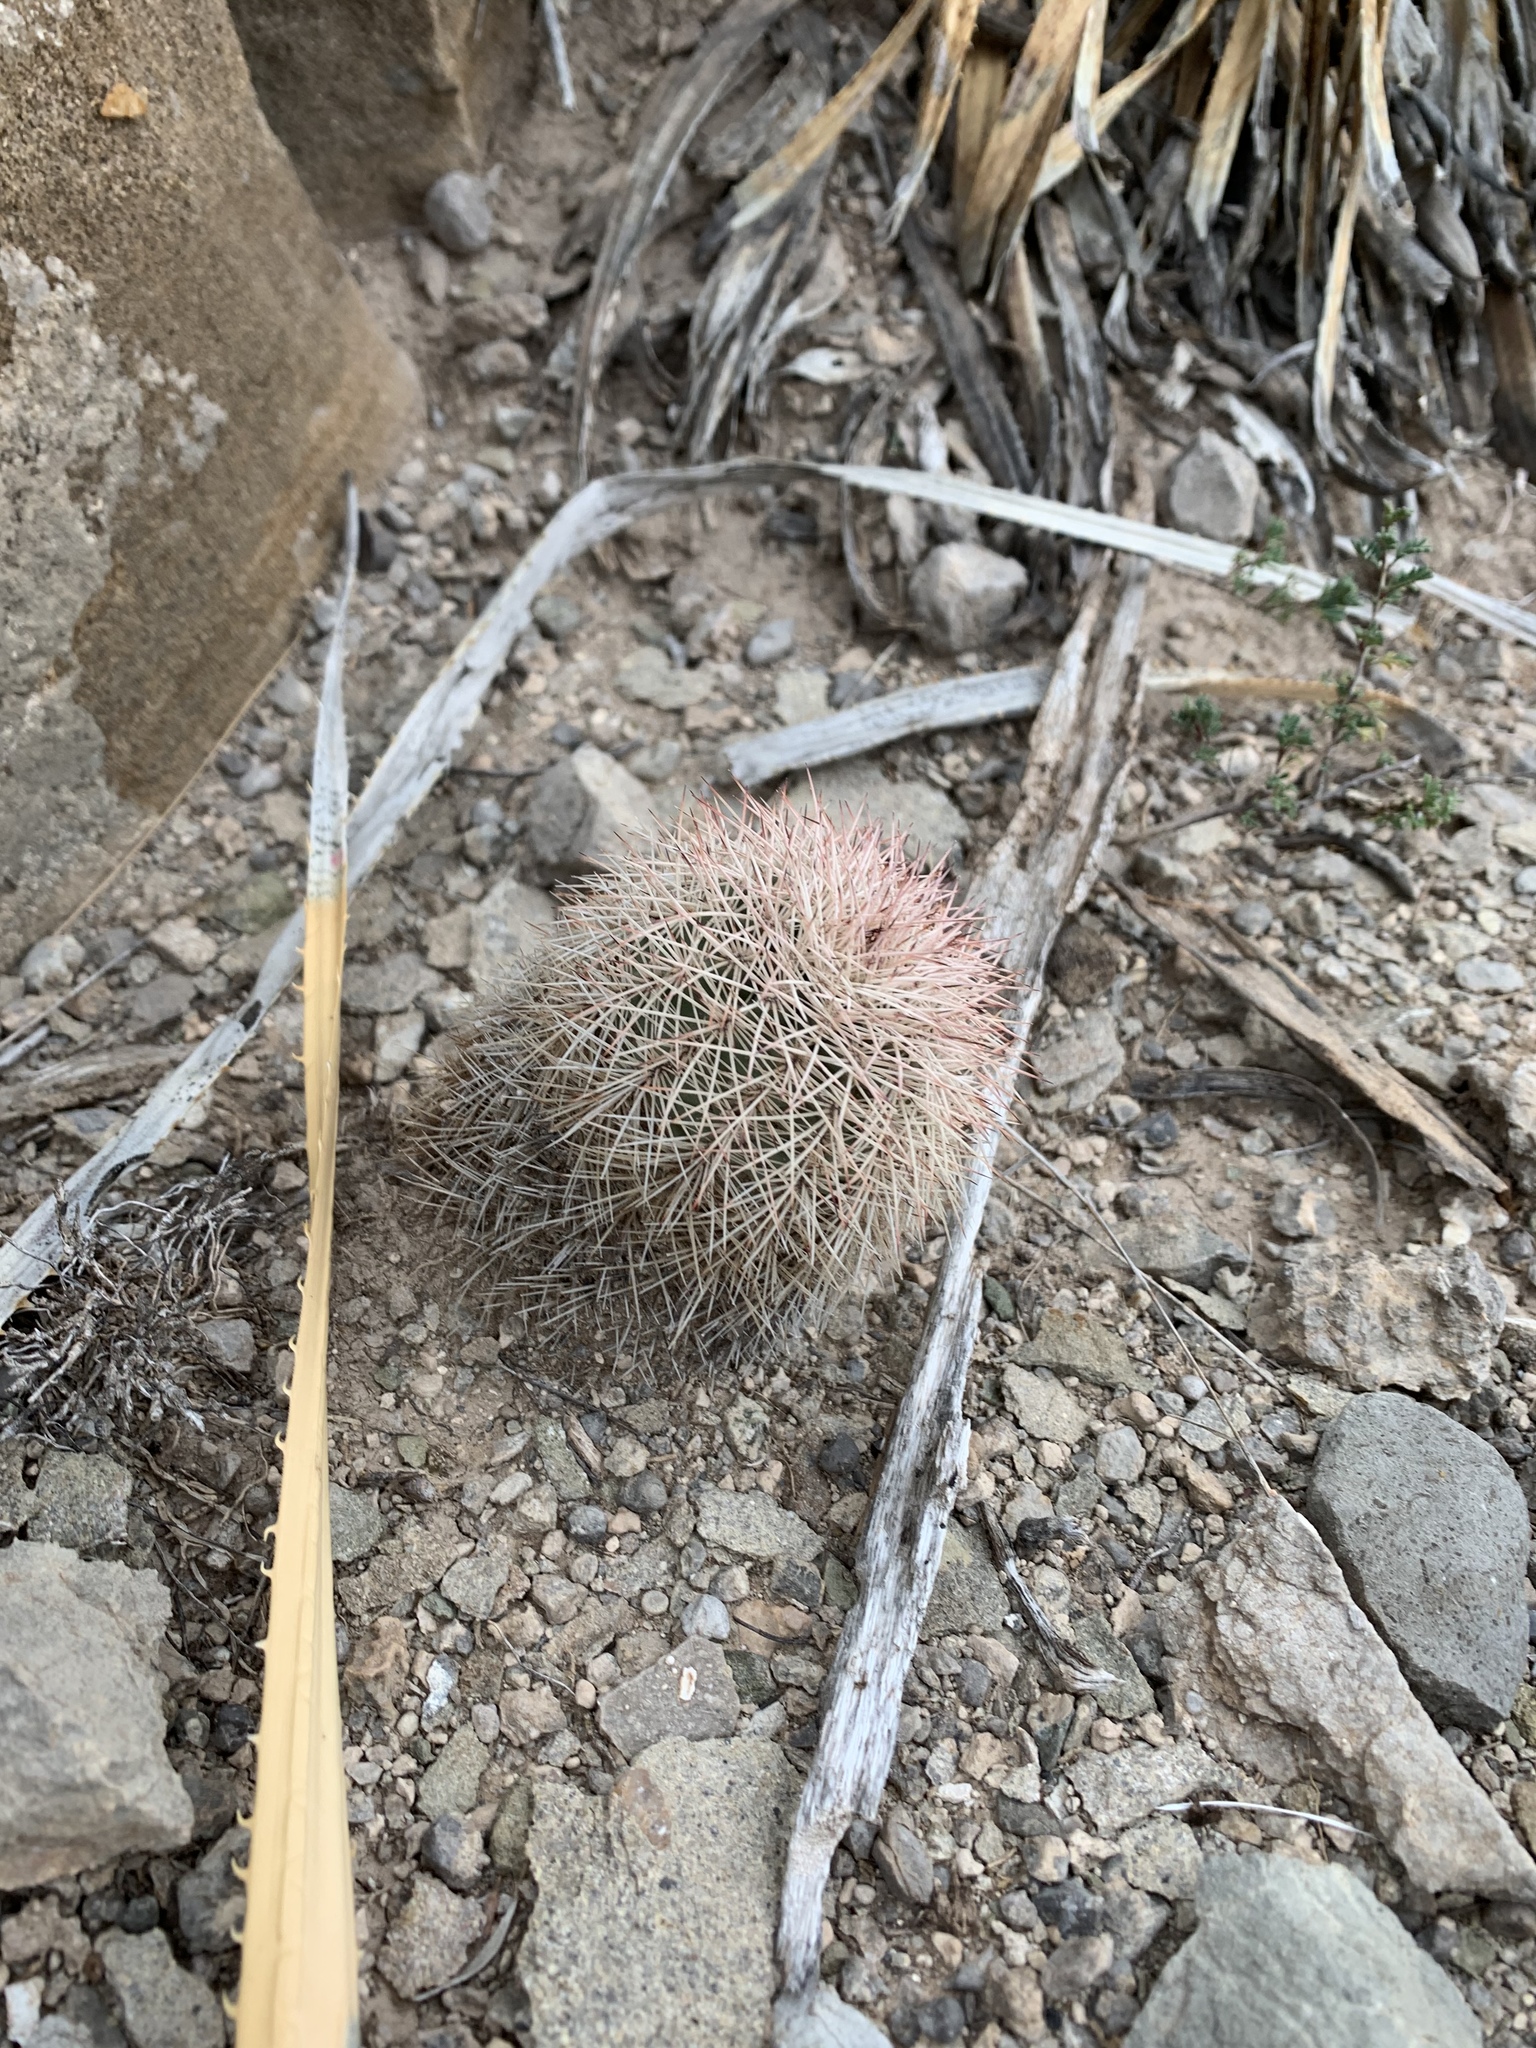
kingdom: Plantae
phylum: Tracheophyta
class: Magnoliopsida
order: Caryophyllales
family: Cactaceae
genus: Echinocereus
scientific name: Echinocereus dasyacanthus
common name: Spiny hedgehog cactus
